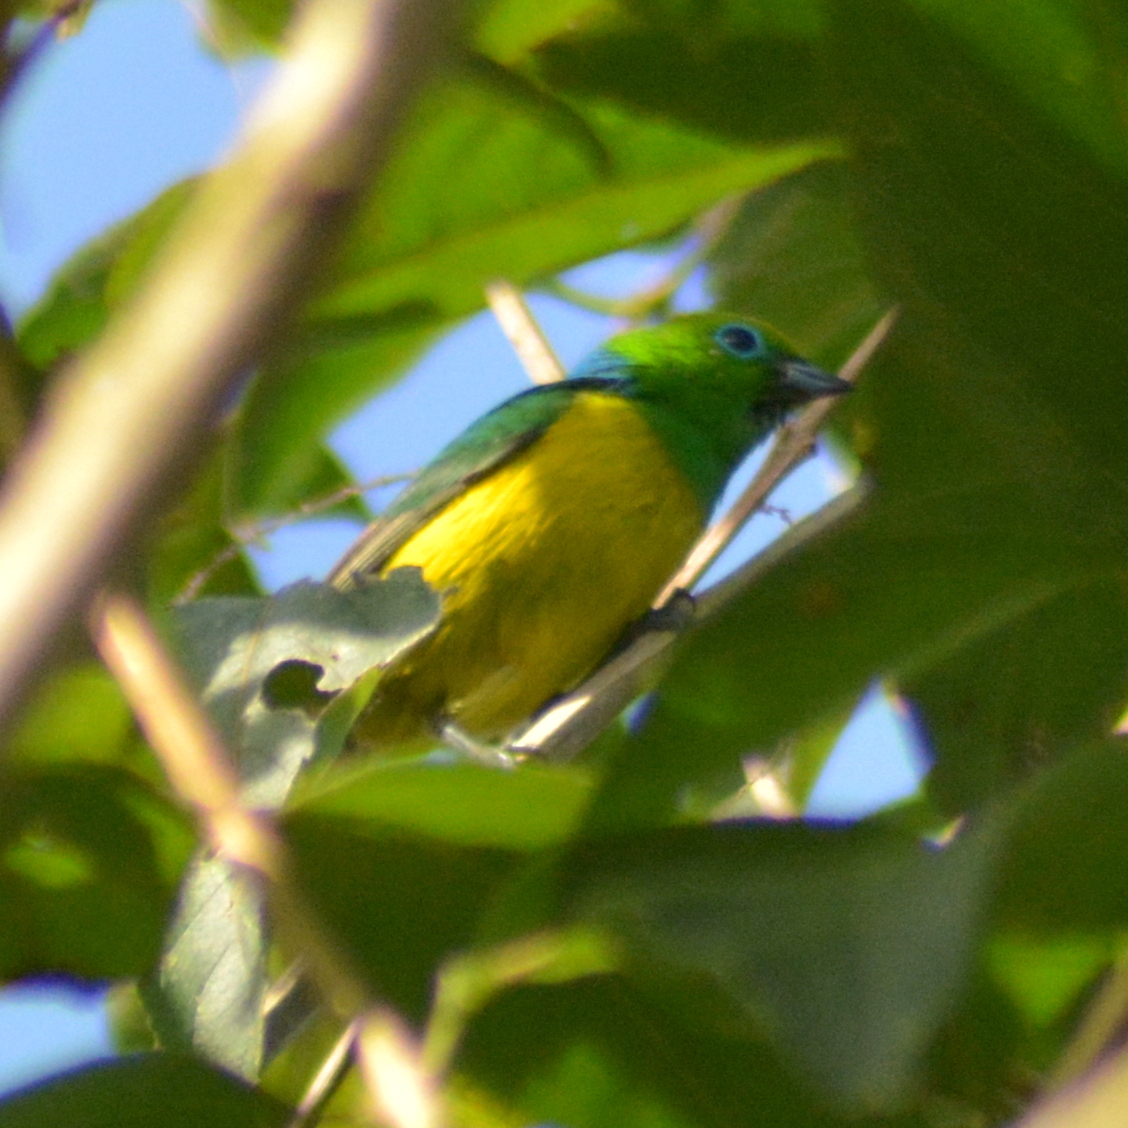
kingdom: Animalia
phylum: Chordata
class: Aves
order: Passeriformes
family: Fringillidae
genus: Chlorophonia
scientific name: Chlorophonia cyanea
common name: Blue-naped chlorophonia
